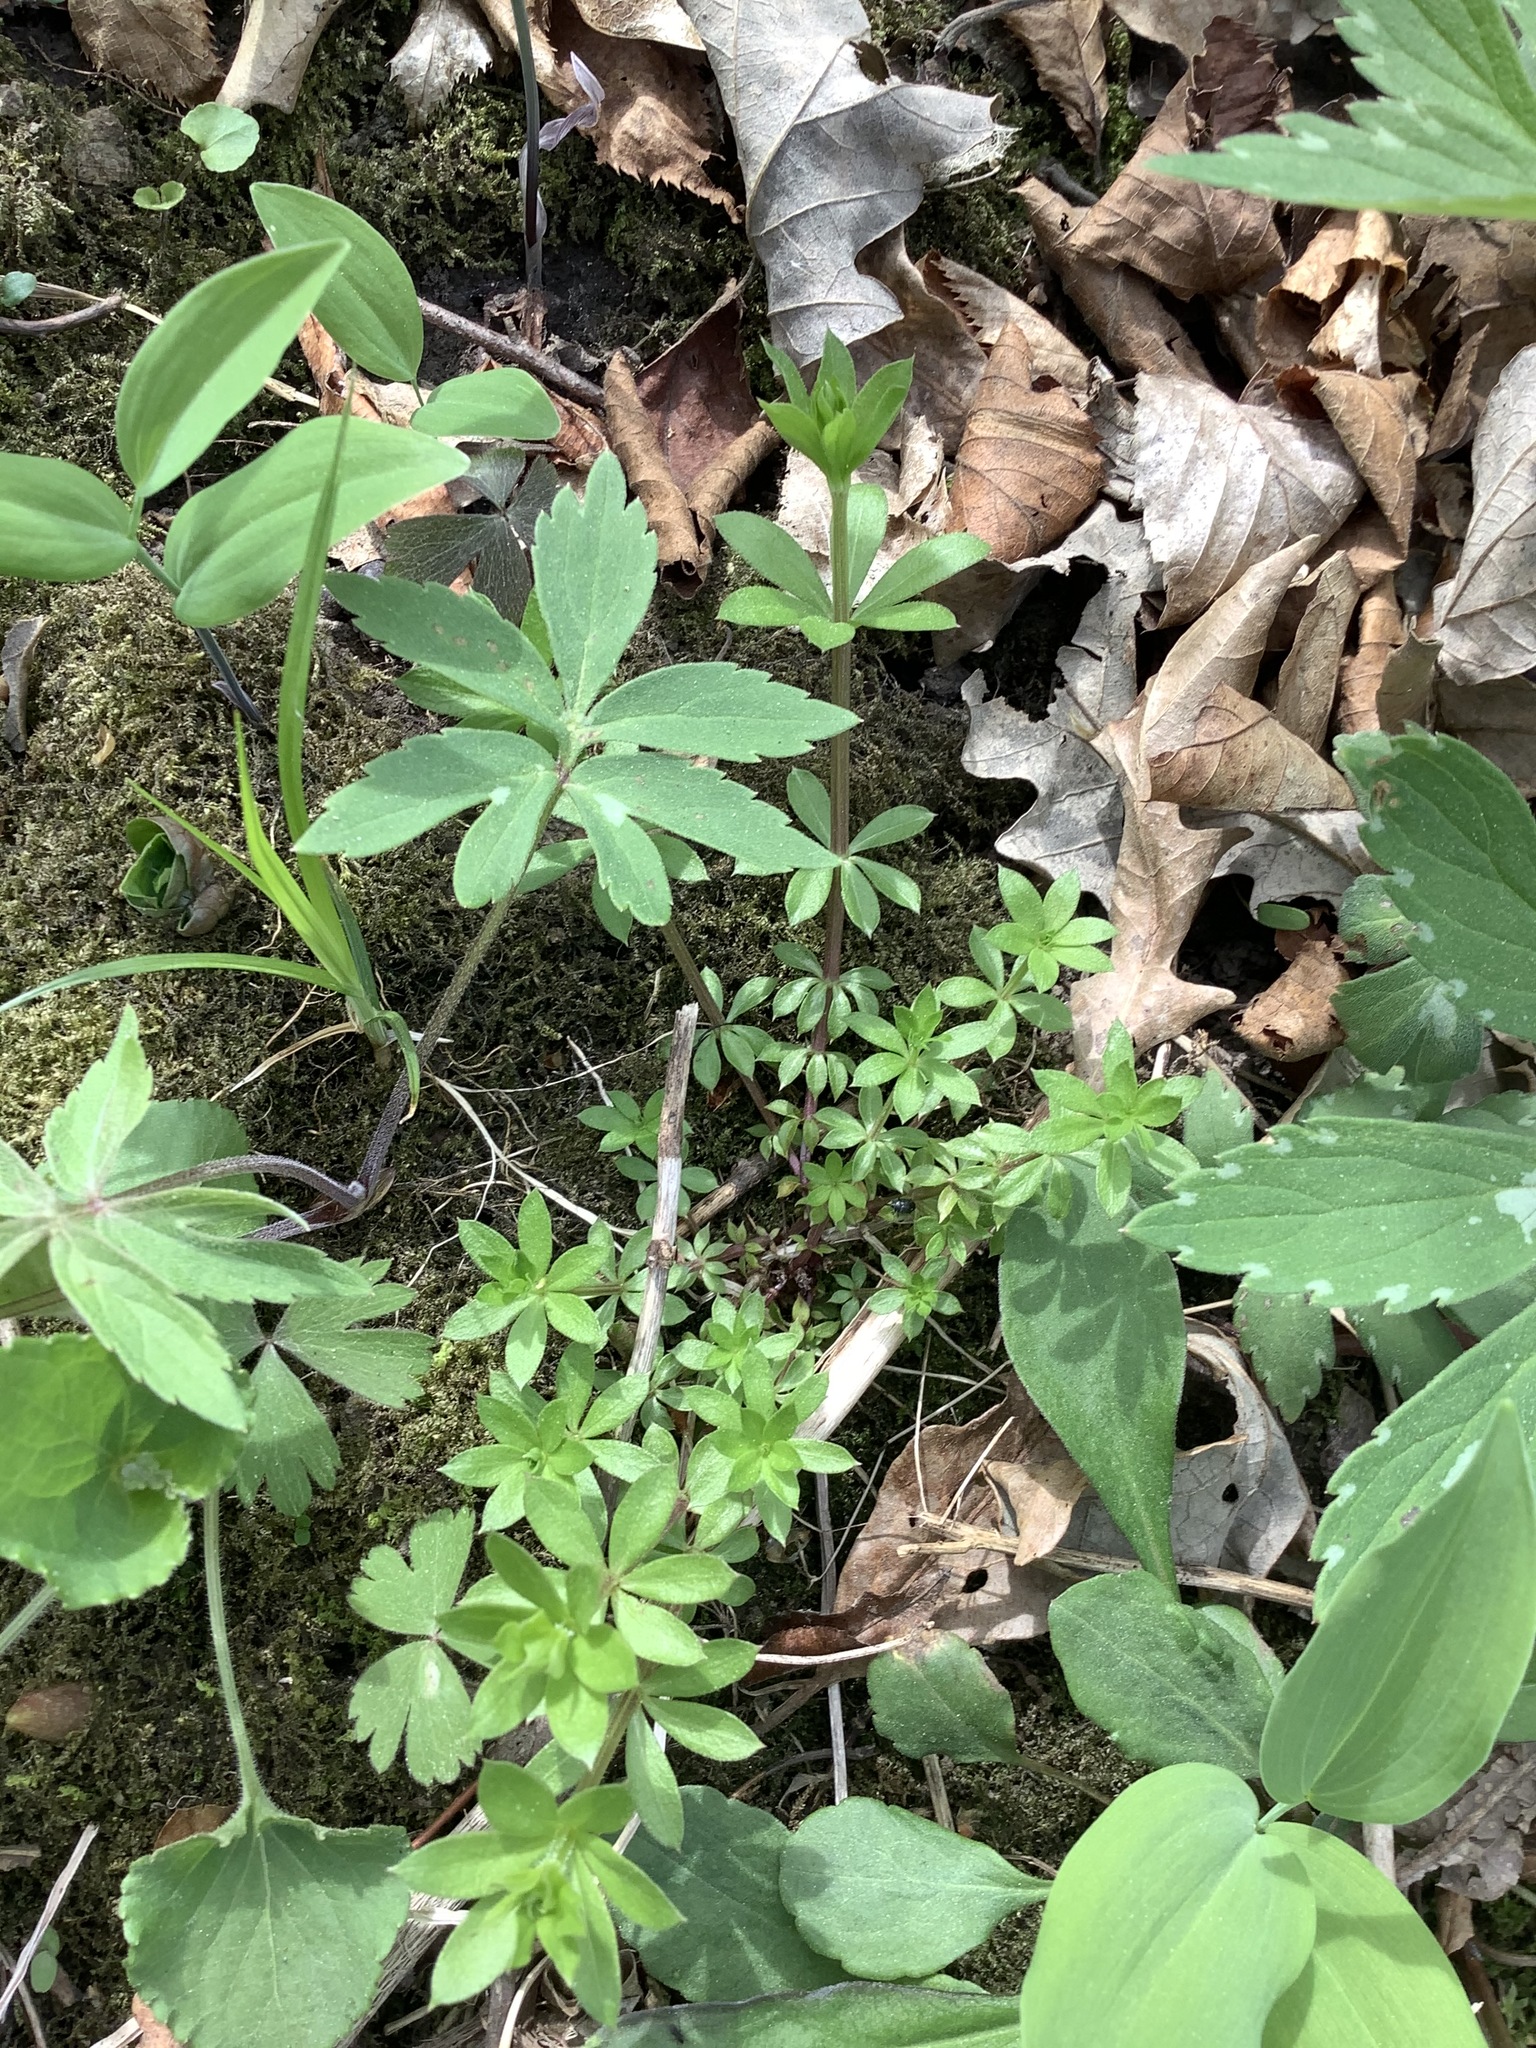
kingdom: Plantae
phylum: Tracheophyta
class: Magnoliopsida
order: Gentianales
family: Rubiaceae
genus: Galium
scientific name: Galium triflorum
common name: Fragrant bedstraw
